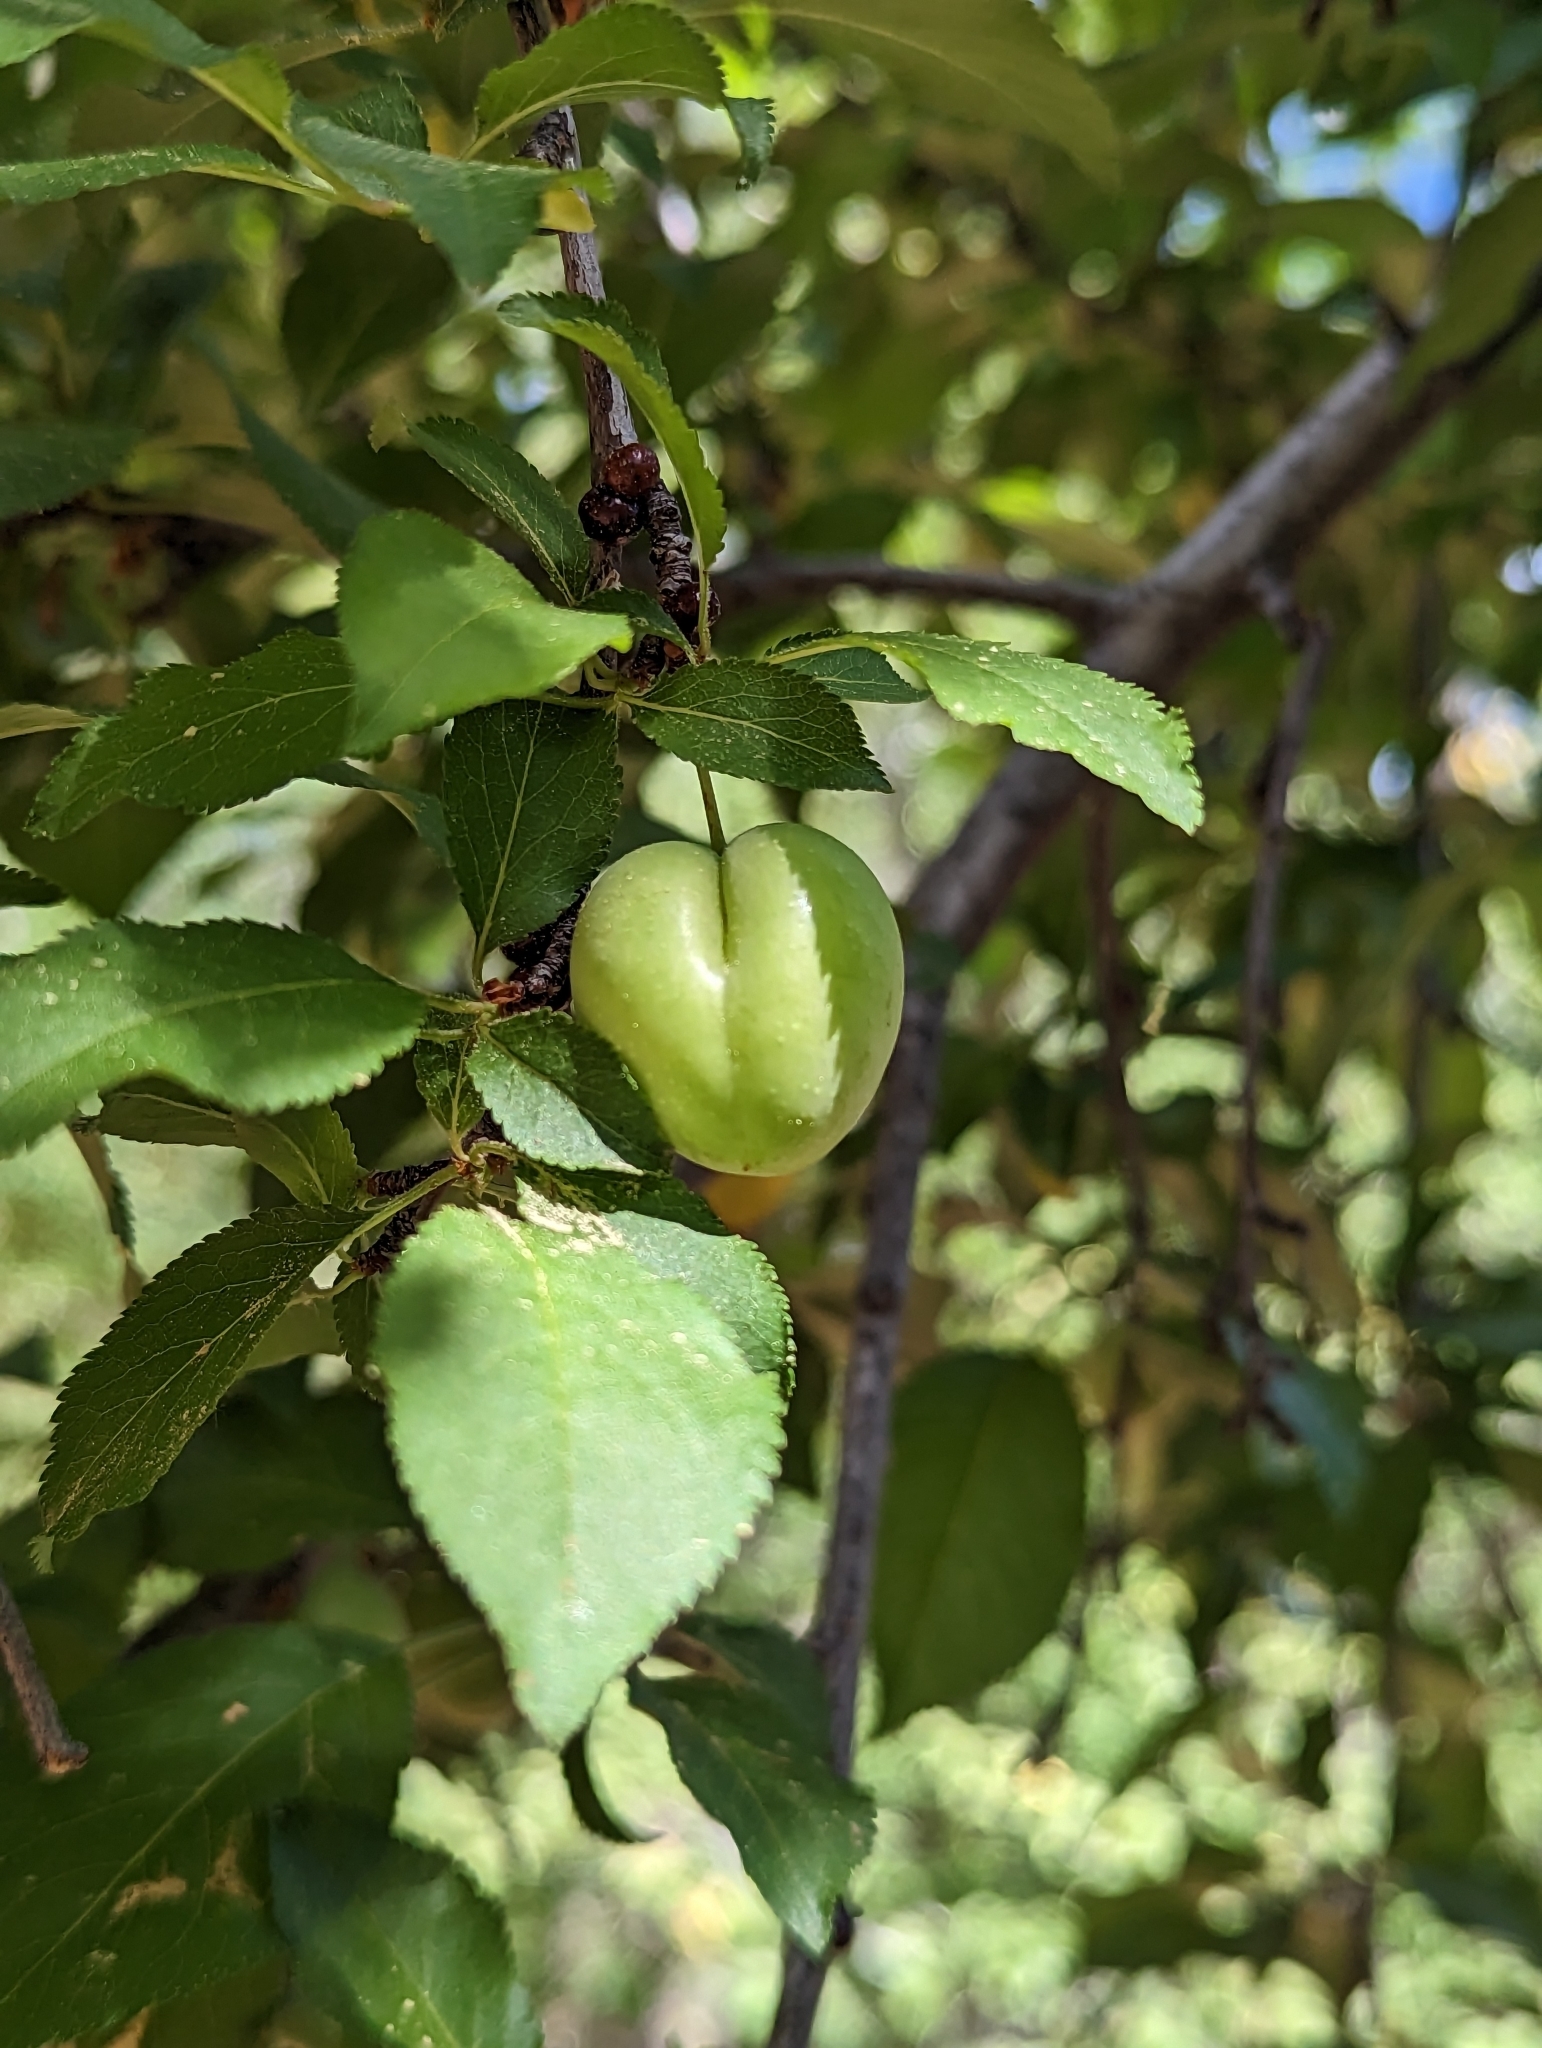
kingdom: Plantae
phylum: Tracheophyta
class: Magnoliopsida
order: Rosales
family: Rosaceae
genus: Prunus
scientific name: Prunus cerasifera
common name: Cherry plum
